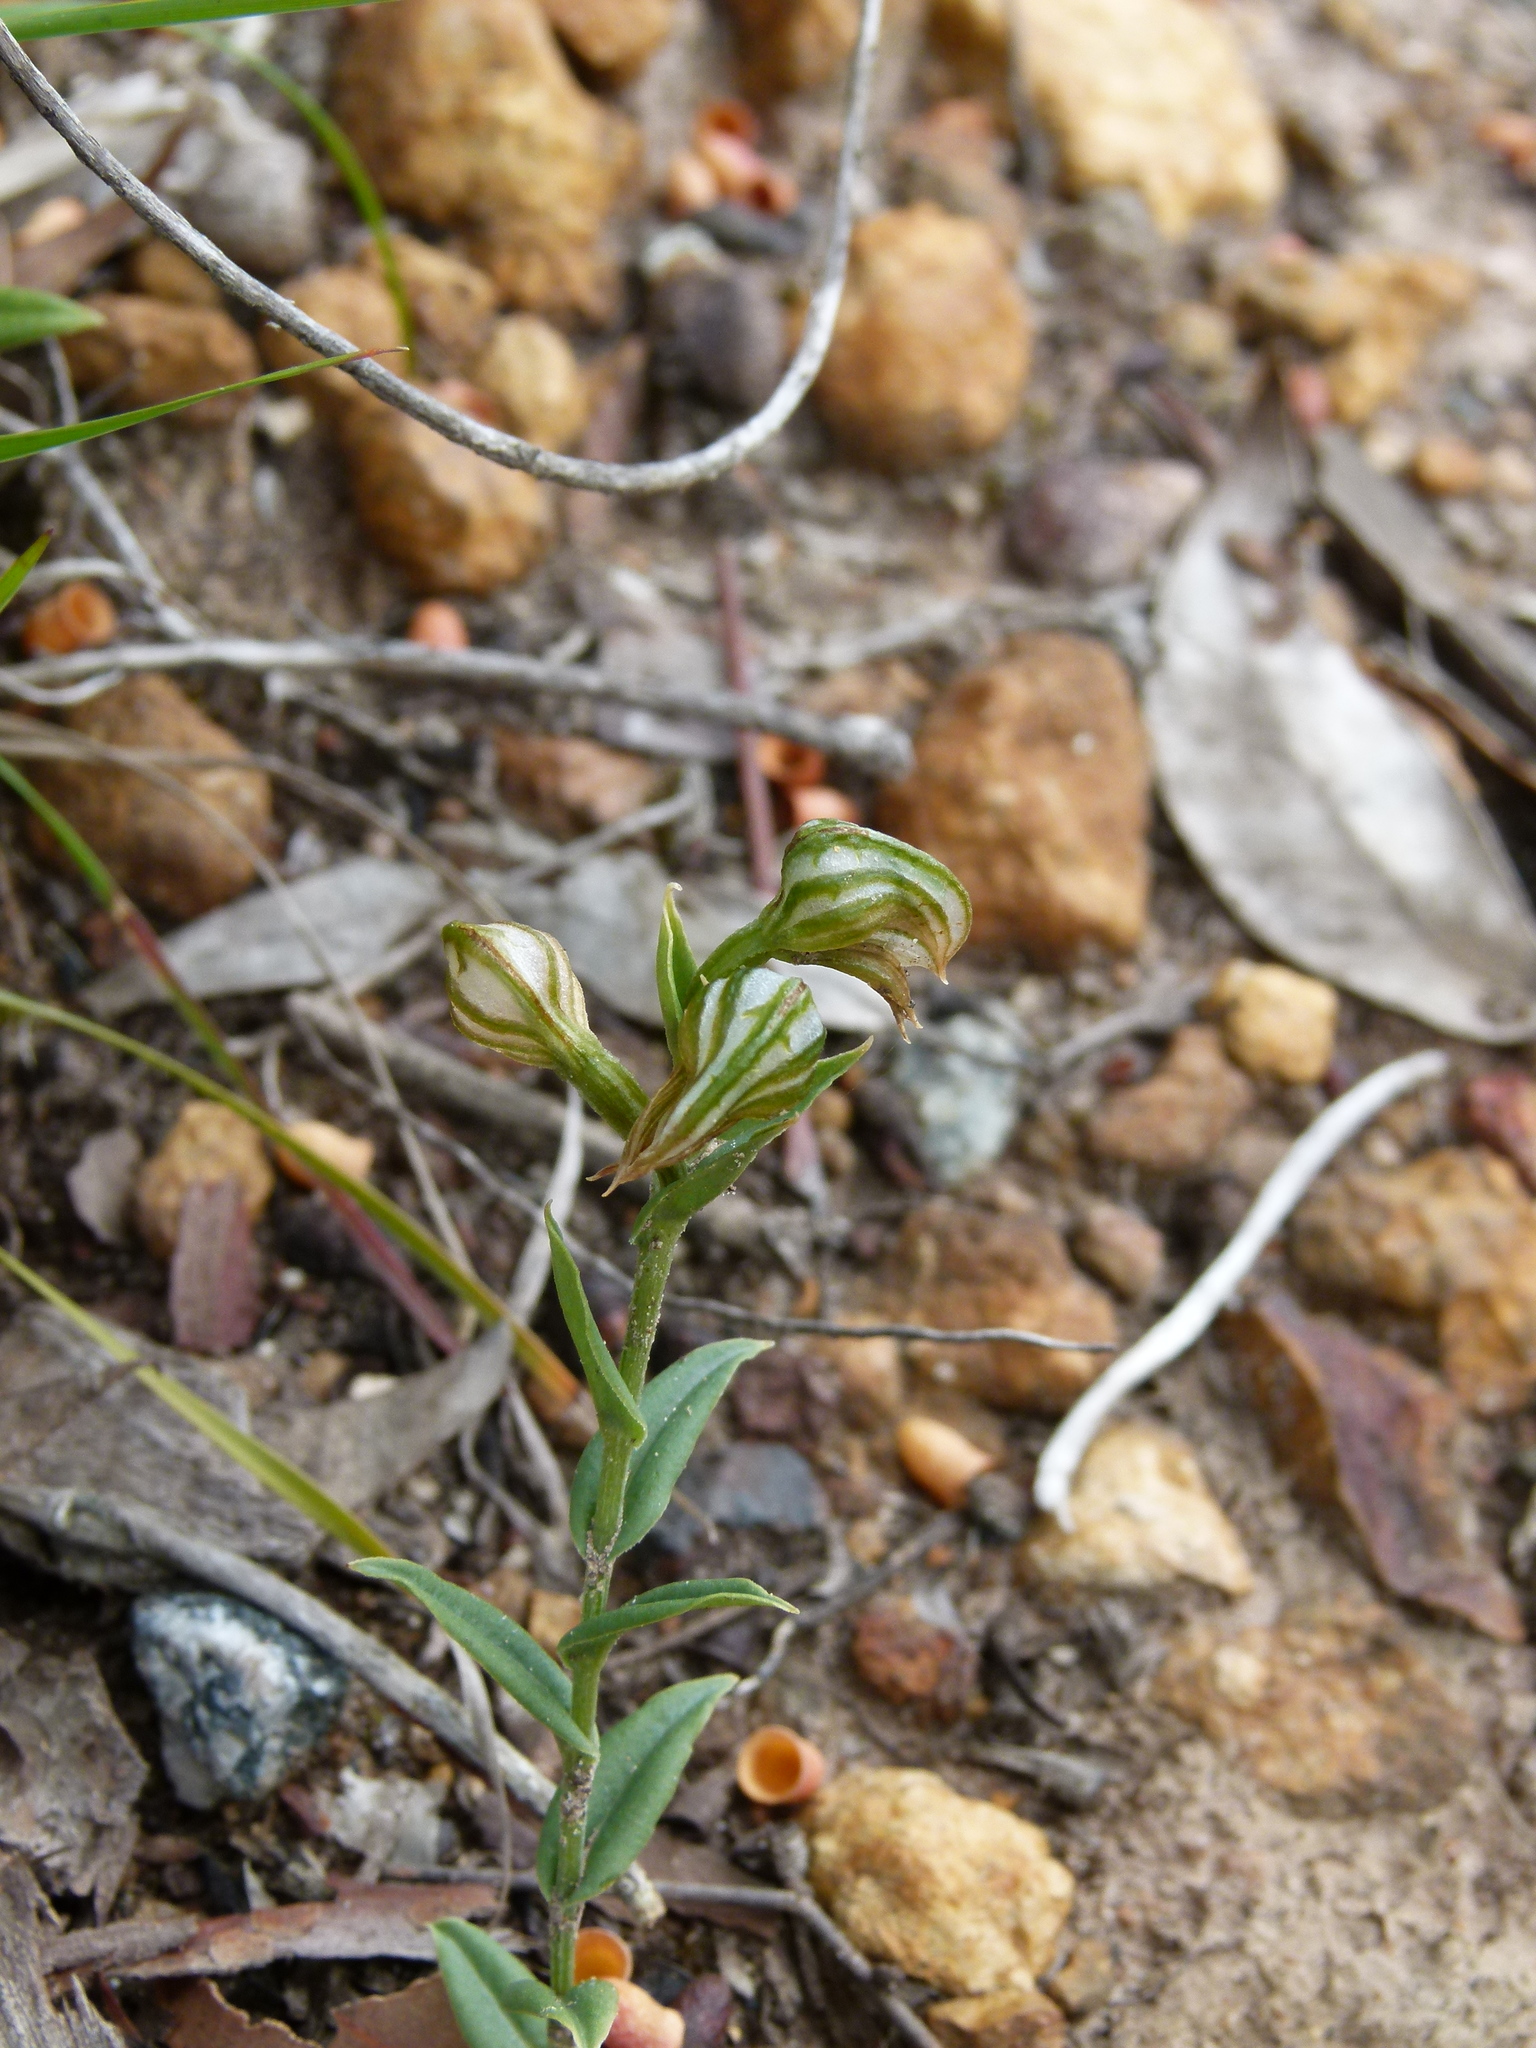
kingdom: Plantae
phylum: Tracheophyta
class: Liliopsida
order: Asparagales
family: Orchidaceae
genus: Pterostylis
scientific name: Pterostylis vittata
